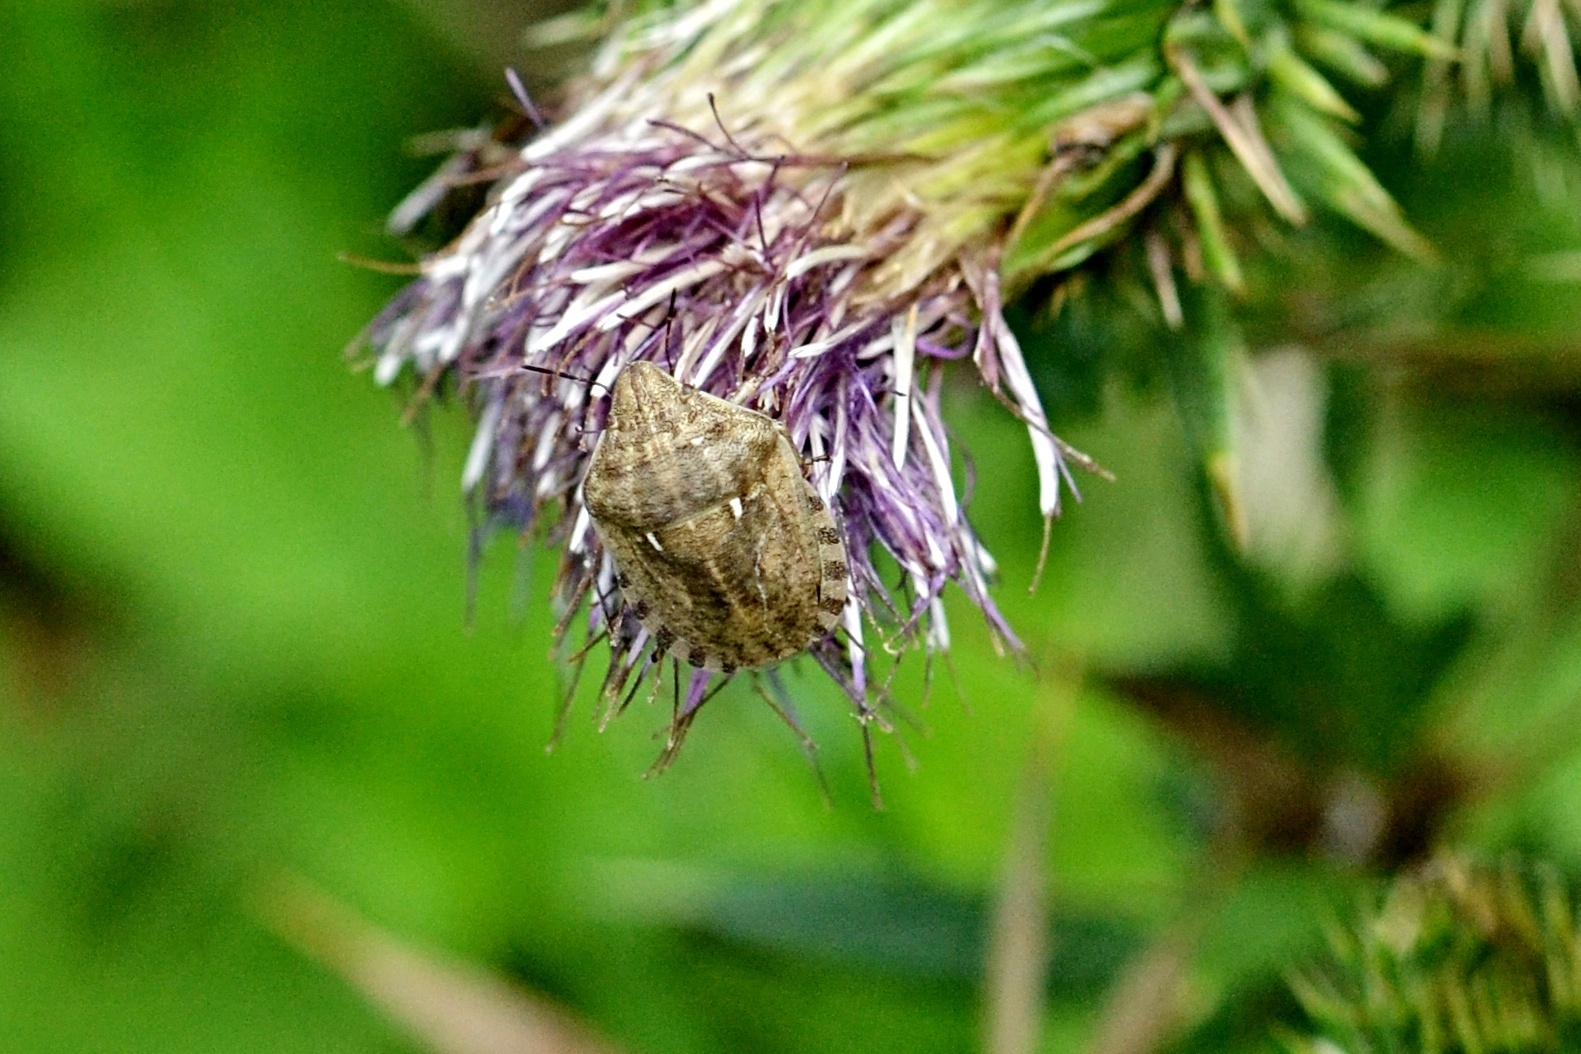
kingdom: Animalia
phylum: Arthropoda
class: Insecta
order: Hemiptera
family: Scutelleridae
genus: Eurygaster
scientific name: Eurygaster maura
